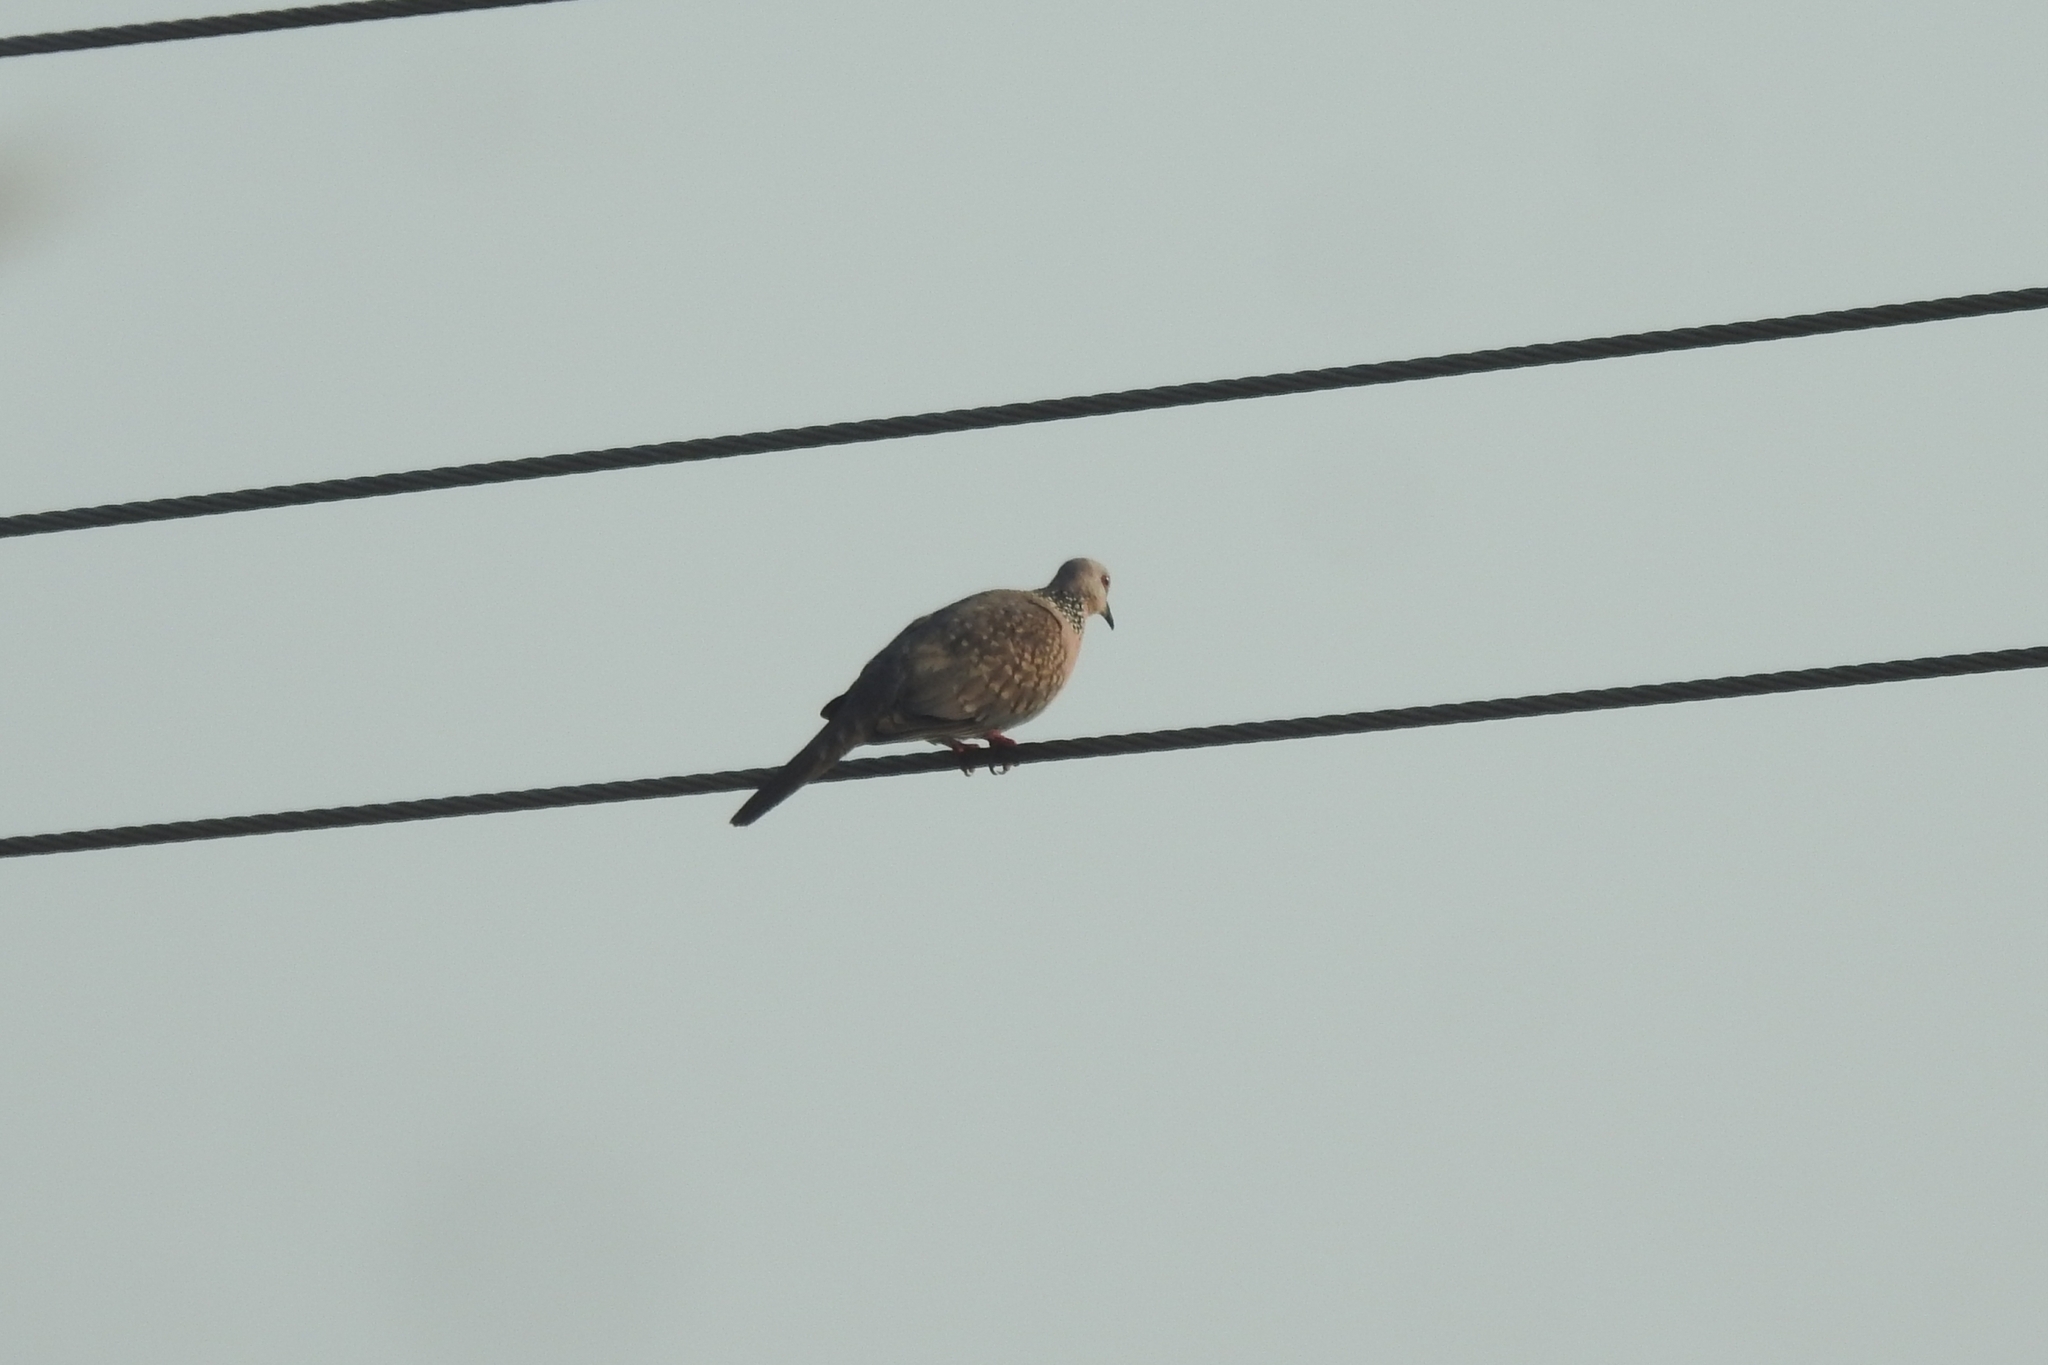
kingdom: Animalia
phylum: Chordata
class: Aves
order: Columbiformes
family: Columbidae
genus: Spilopelia
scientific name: Spilopelia chinensis
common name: Spotted dove
